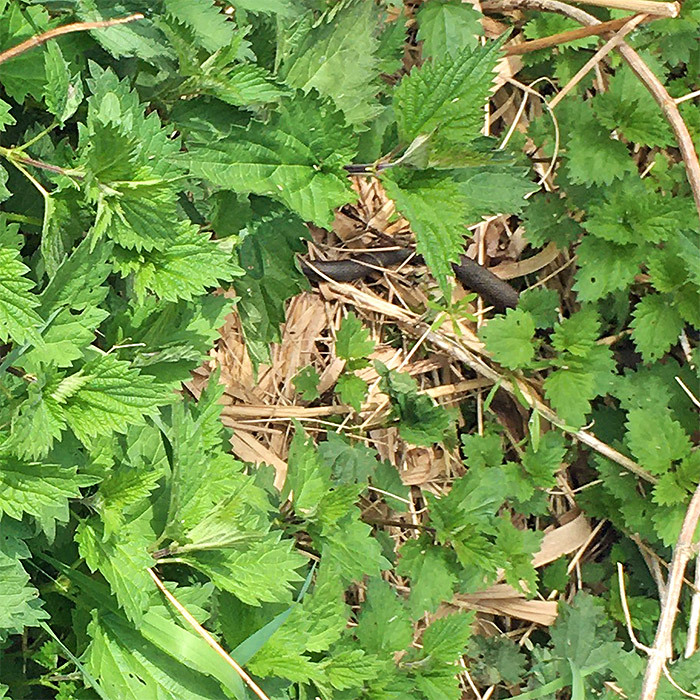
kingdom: Animalia
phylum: Chordata
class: Squamata
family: Colubridae
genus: Natrix
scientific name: Natrix natrix
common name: Grass snake
